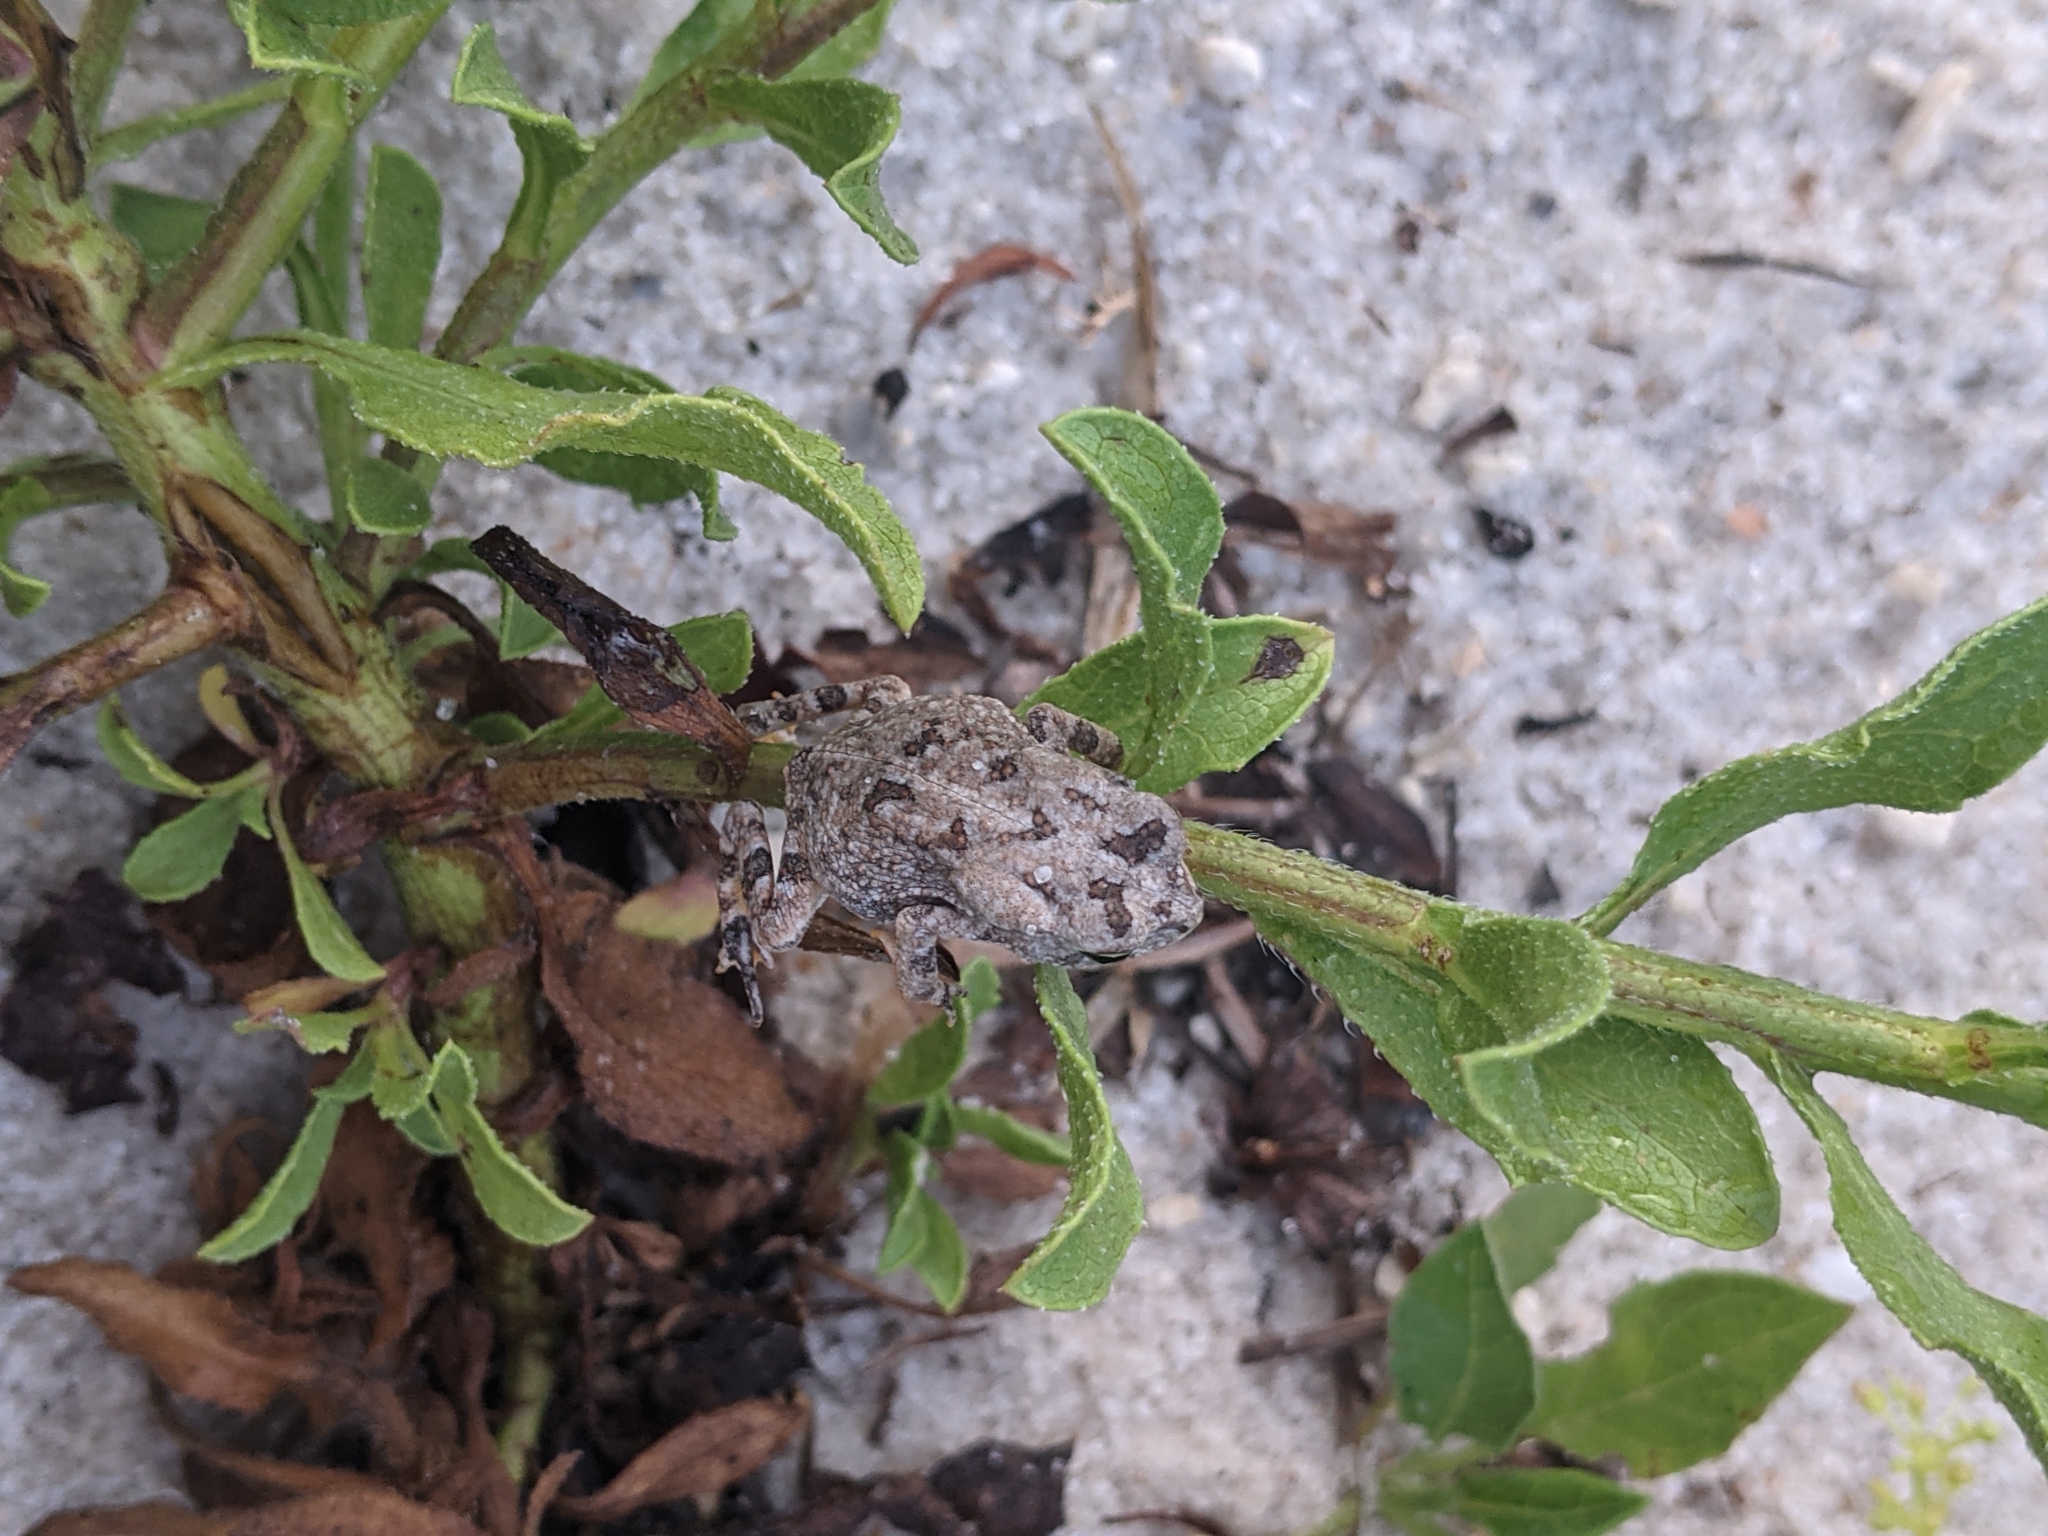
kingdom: Animalia
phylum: Chordata
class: Amphibia
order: Anura
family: Bufonidae
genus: Anaxyrus
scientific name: Anaxyrus terrestris
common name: Southern toad
